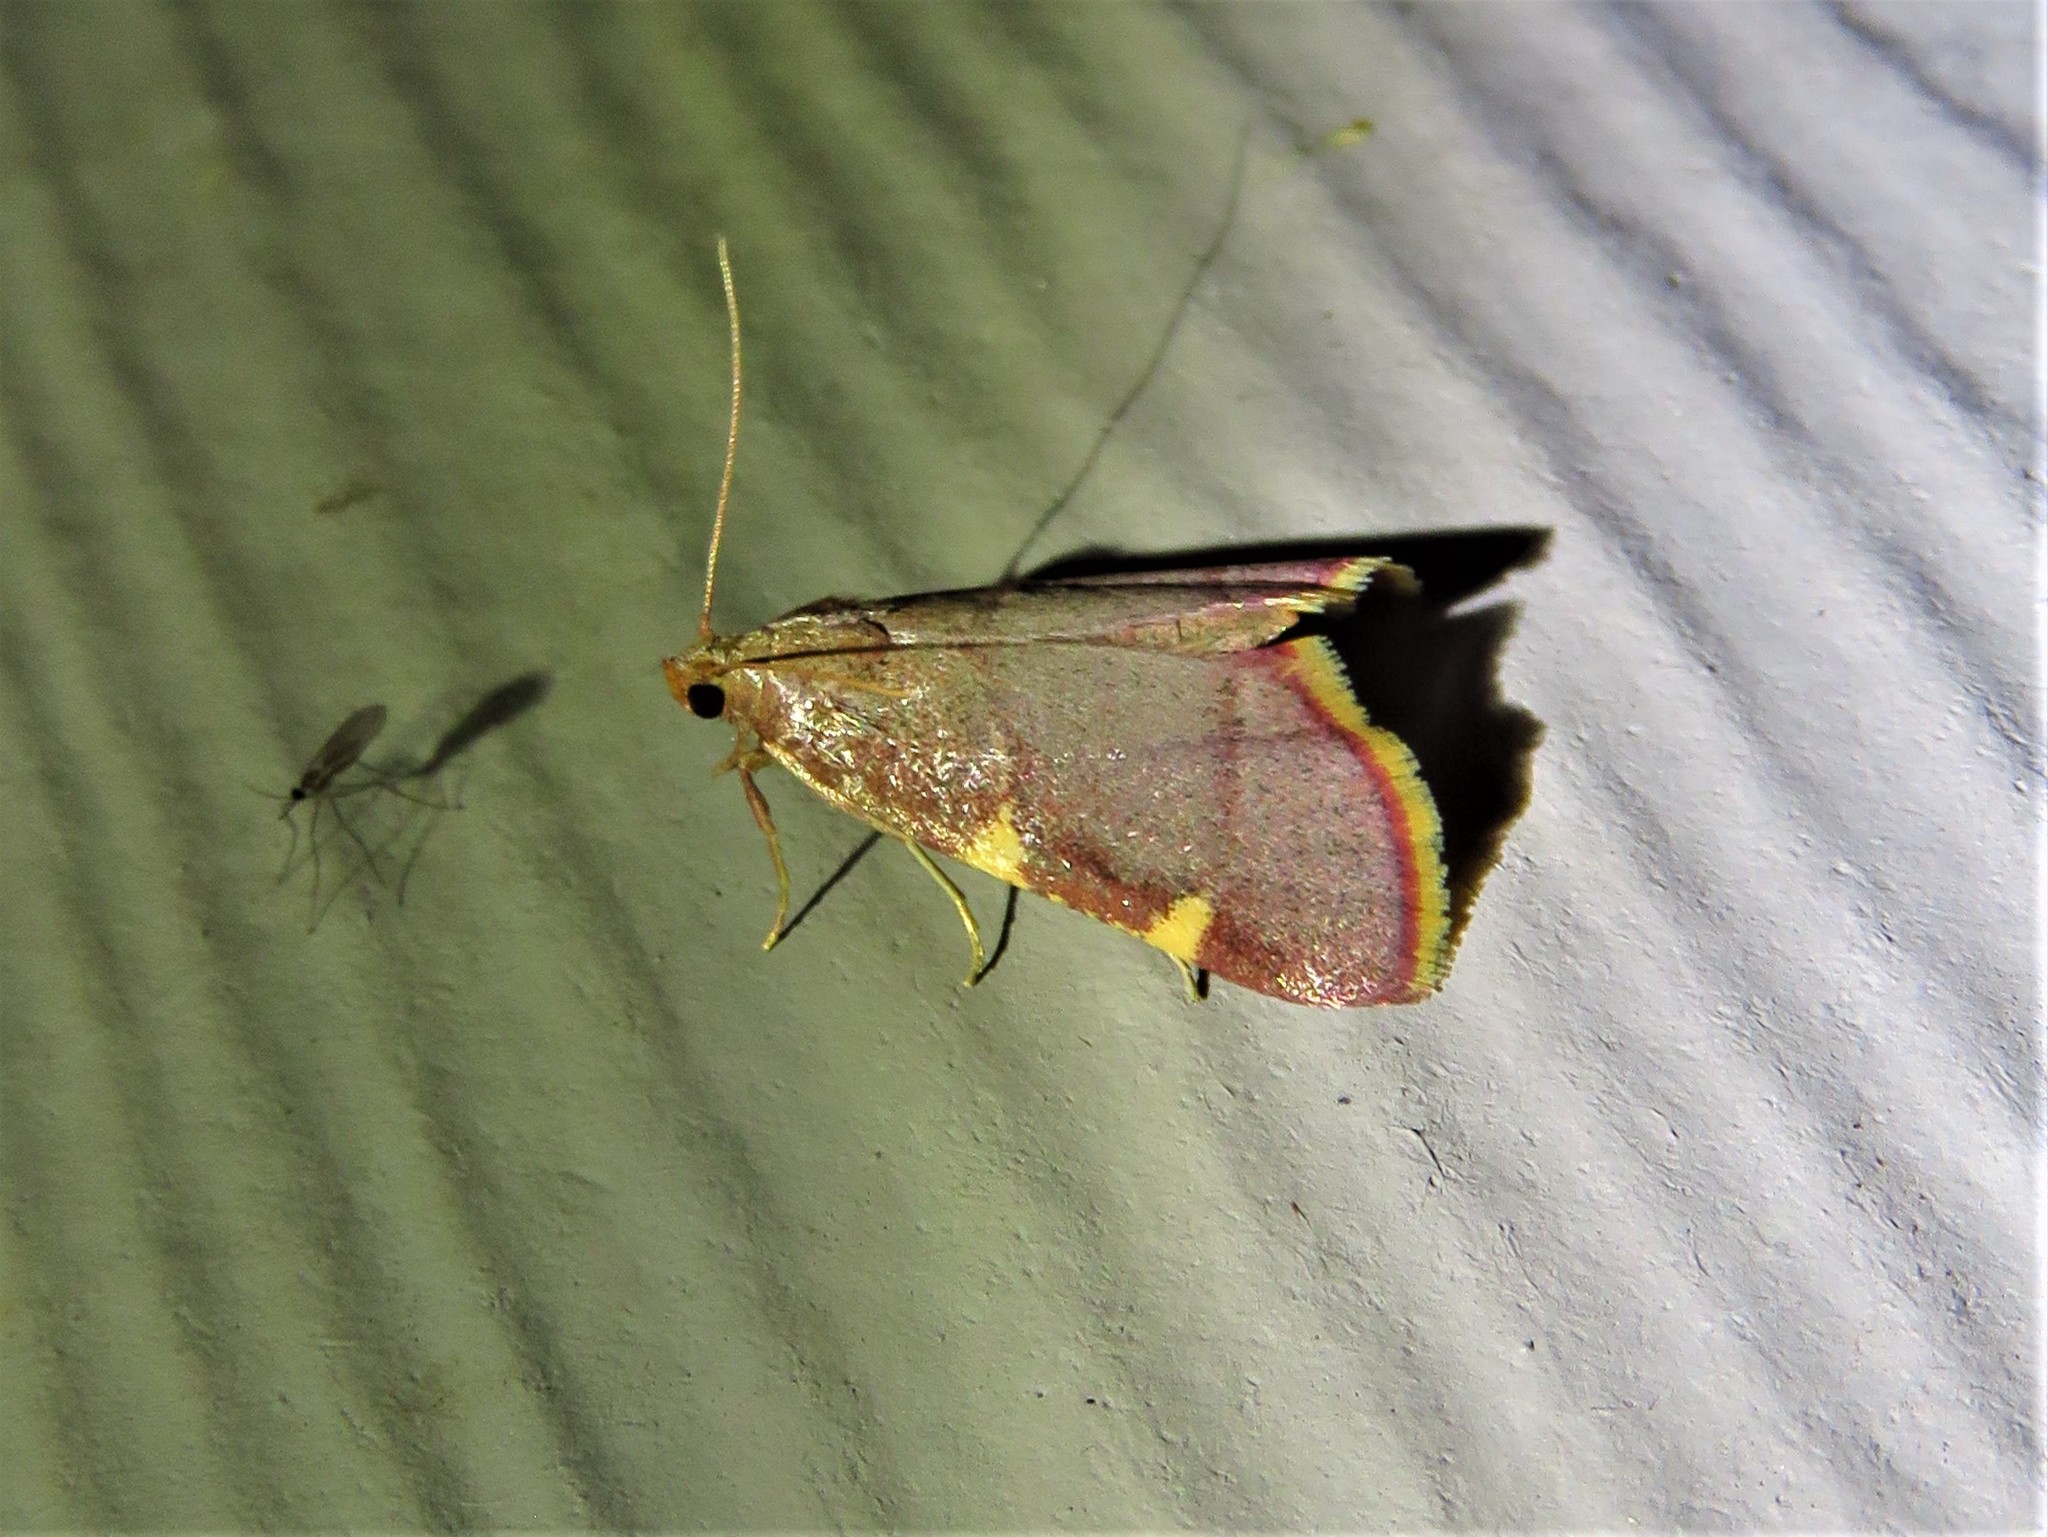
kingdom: Animalia
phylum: Arthropoda
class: Insecta
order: Lepidoptera
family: Pyralidae
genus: Hypsopygia
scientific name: Hypsopygia olinalis
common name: Yellow-fringed dolichomia moth
